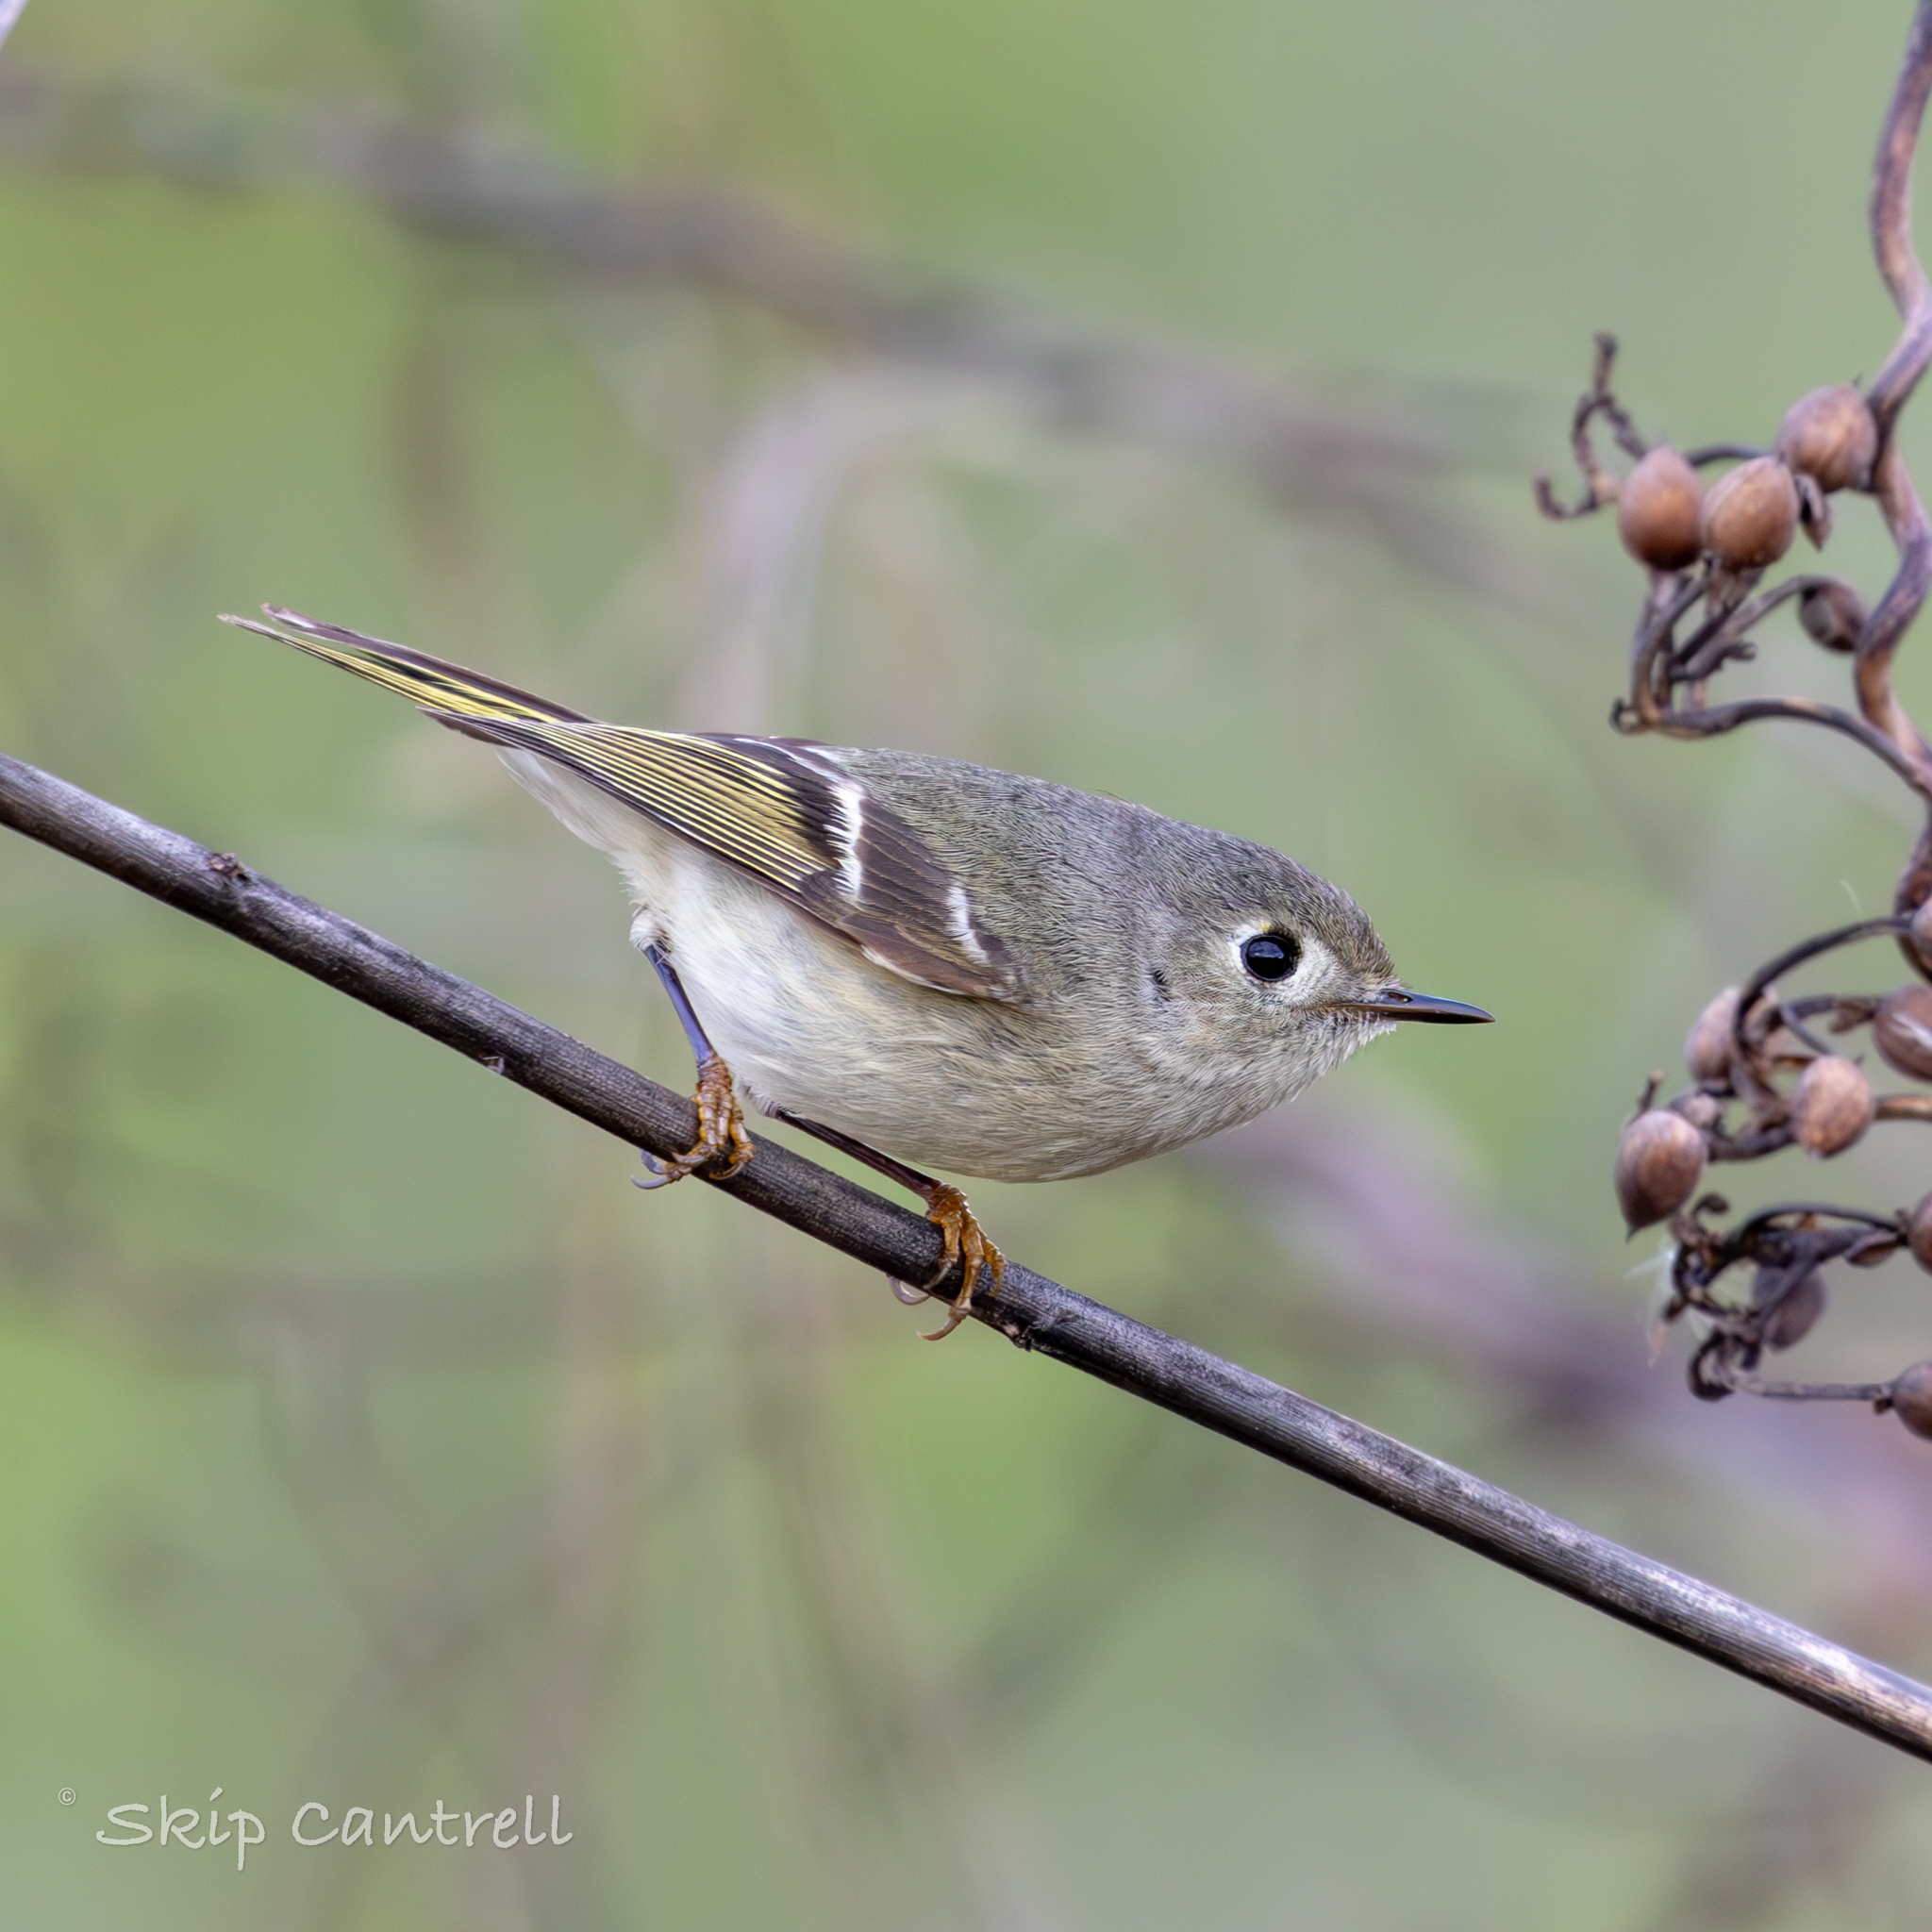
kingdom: Animalia
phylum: Chordata
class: Aves
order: Passeriformes
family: Regulidae
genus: Regulus
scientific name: Regulus calendula
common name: Ruby-crowned kinglet
